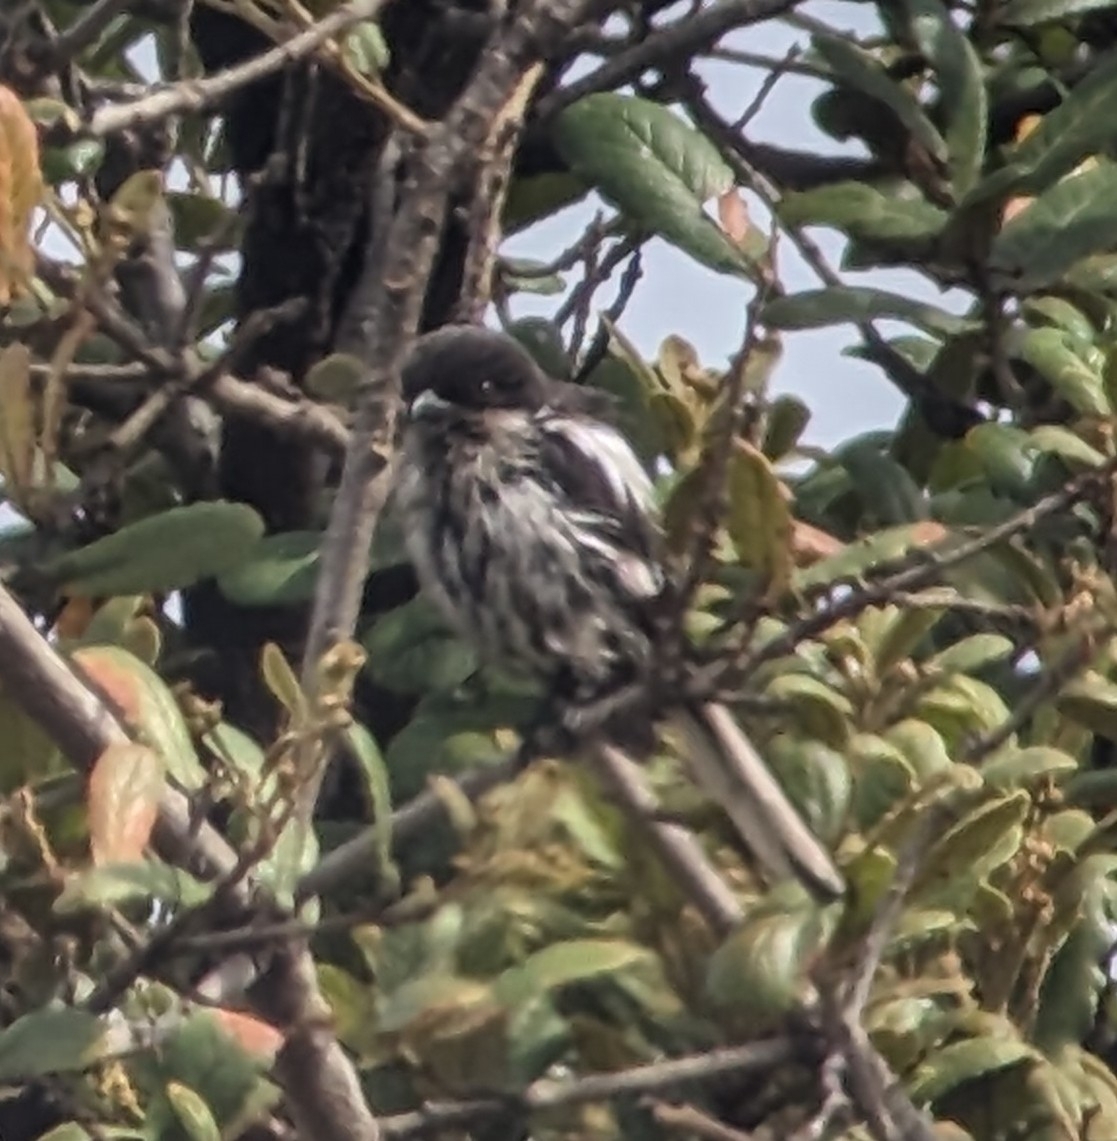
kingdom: Animalia
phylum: Chordata
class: Aves
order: Passeriformes
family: Laniidae
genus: Lanius
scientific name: Lanius collaris
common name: Southern fiscal
